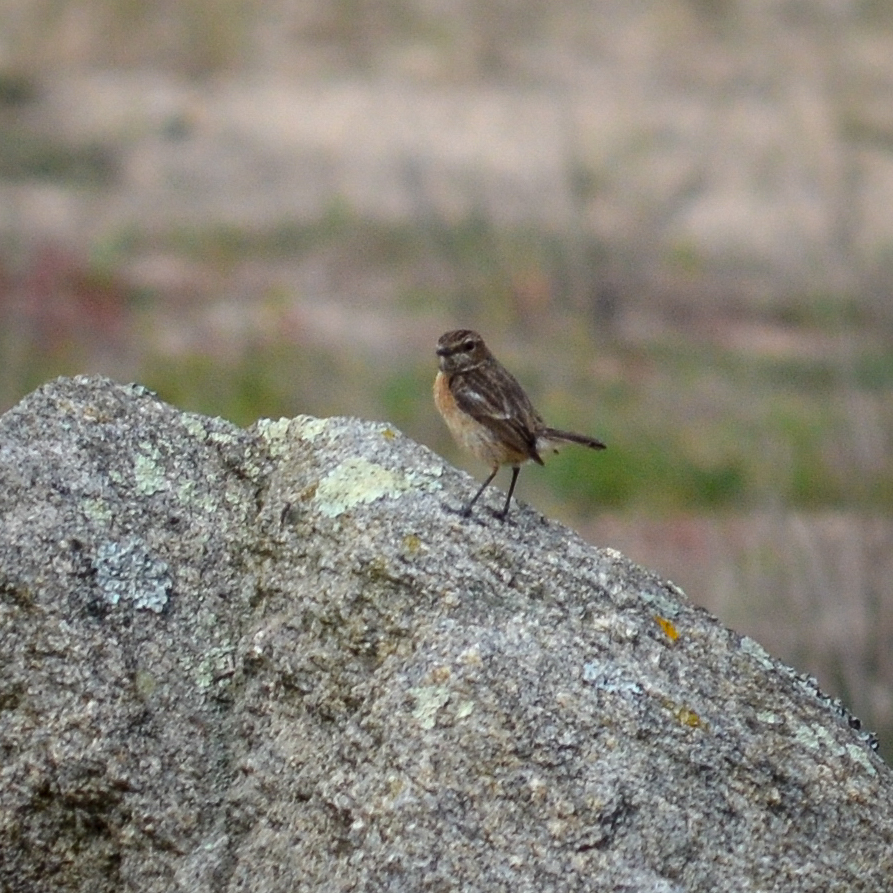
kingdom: Animalia
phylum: Chordata
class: Aves
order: Passeriformes
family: Muscicapidae
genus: Saxicola
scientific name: Saxicola rubicola
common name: European stonechat
